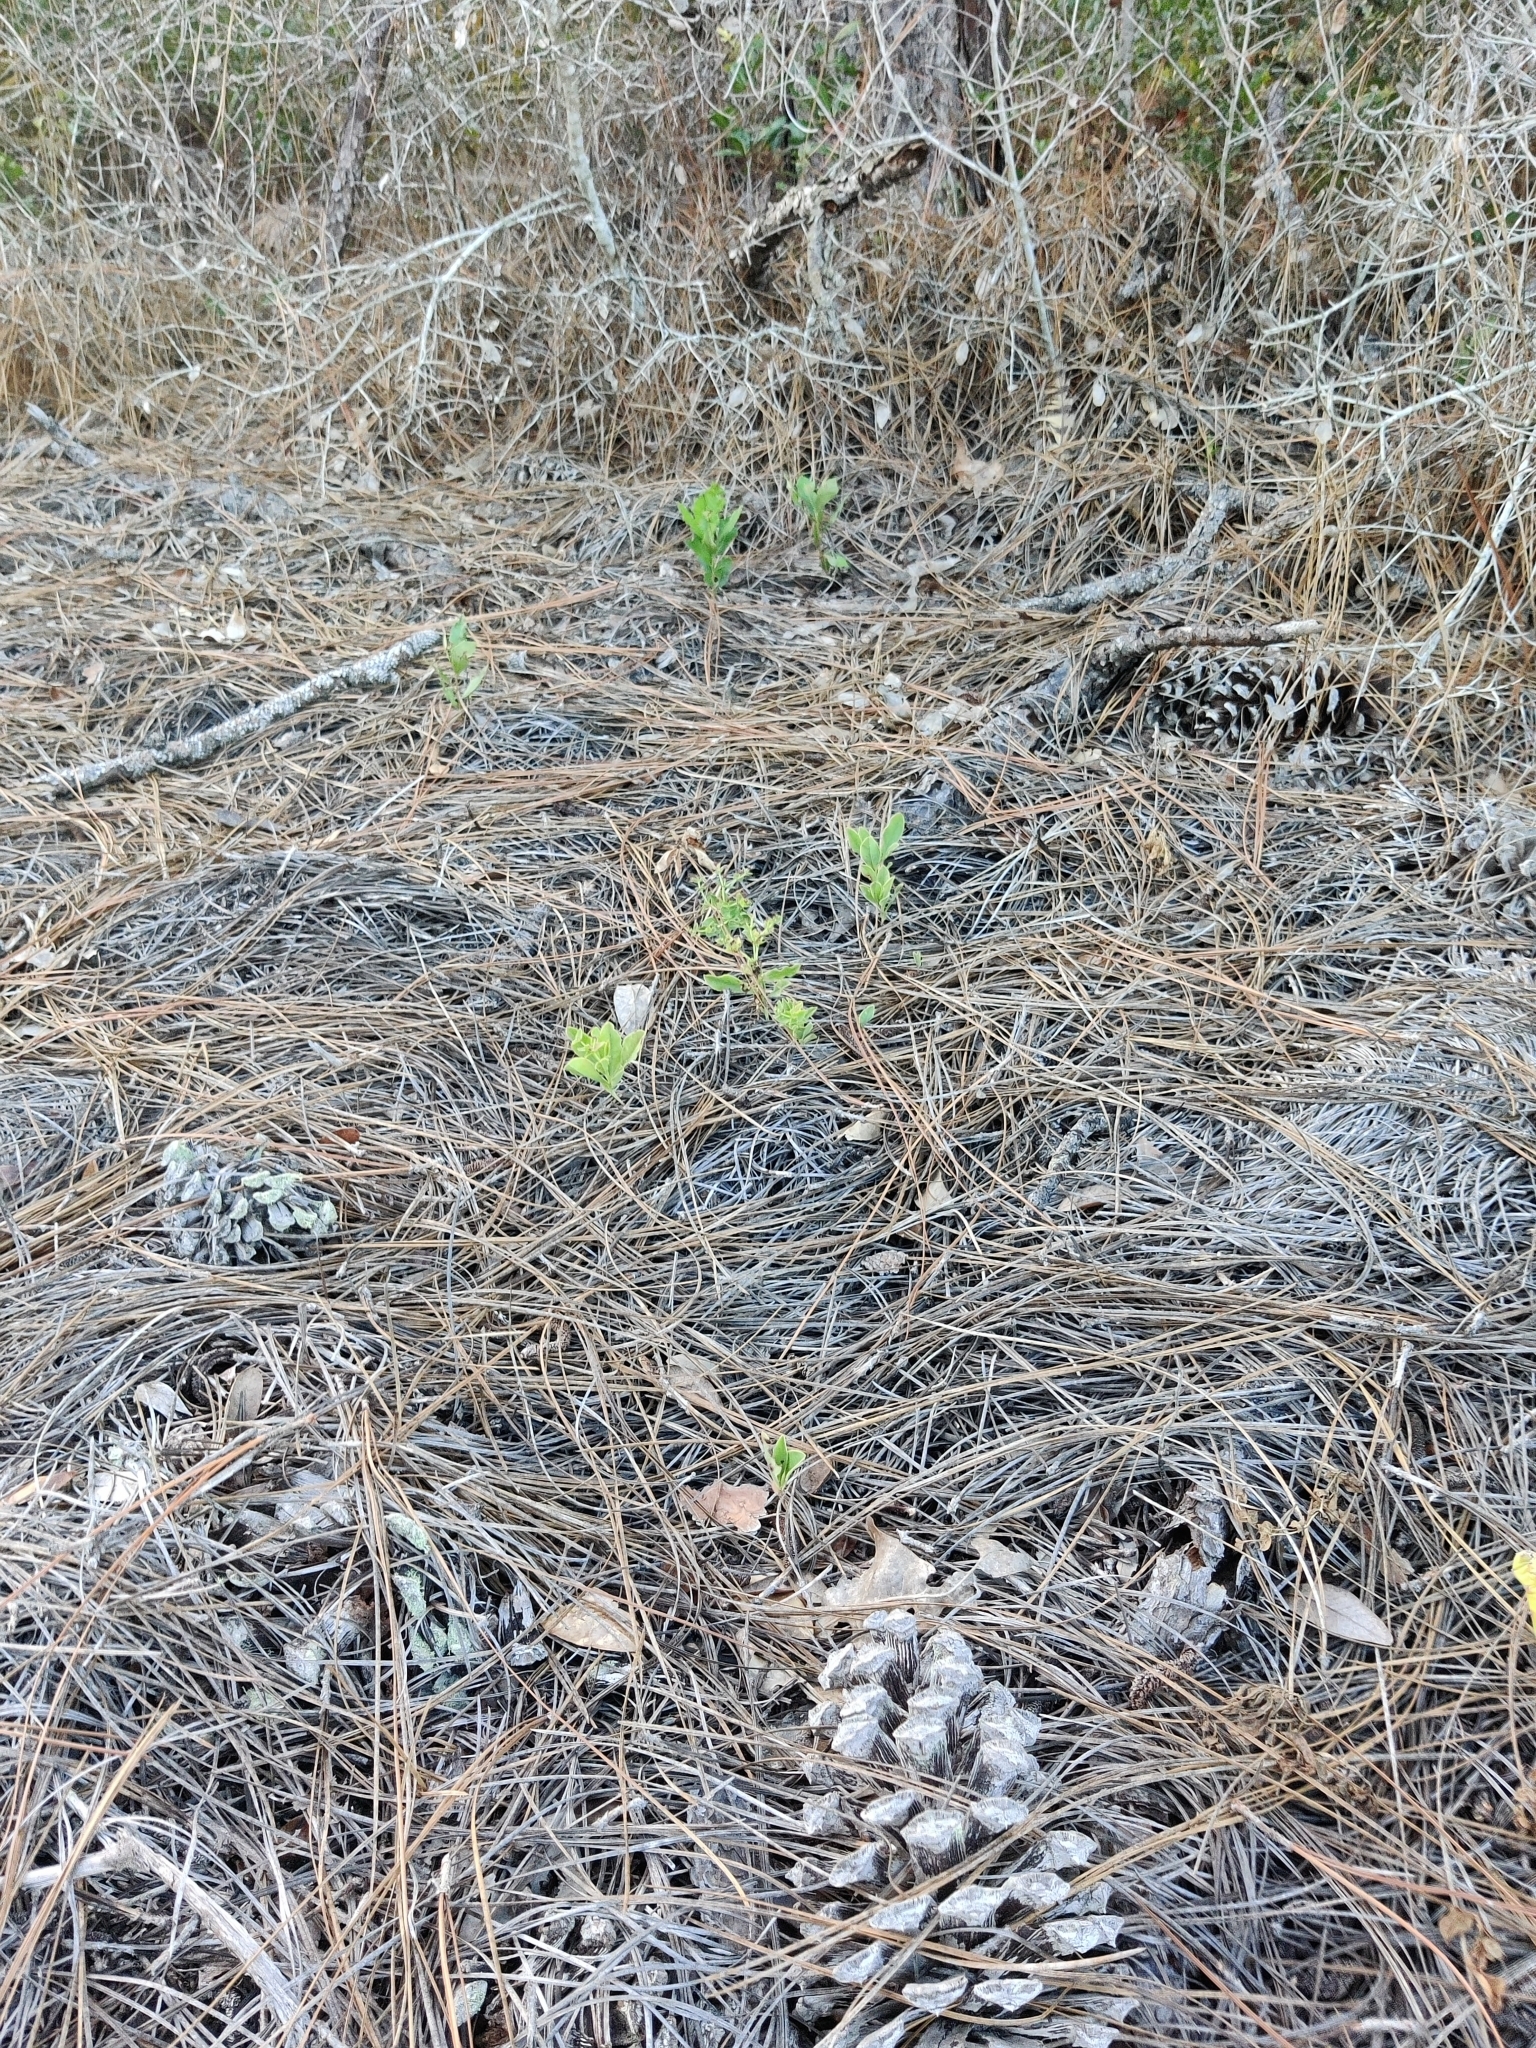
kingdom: Plantae
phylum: Tracheophyta
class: Magnoliopsida
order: Malpighiales
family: Euphorbiaceae
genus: Euphorbia
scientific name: Euphorbia telephioides
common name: Telephus spurge
